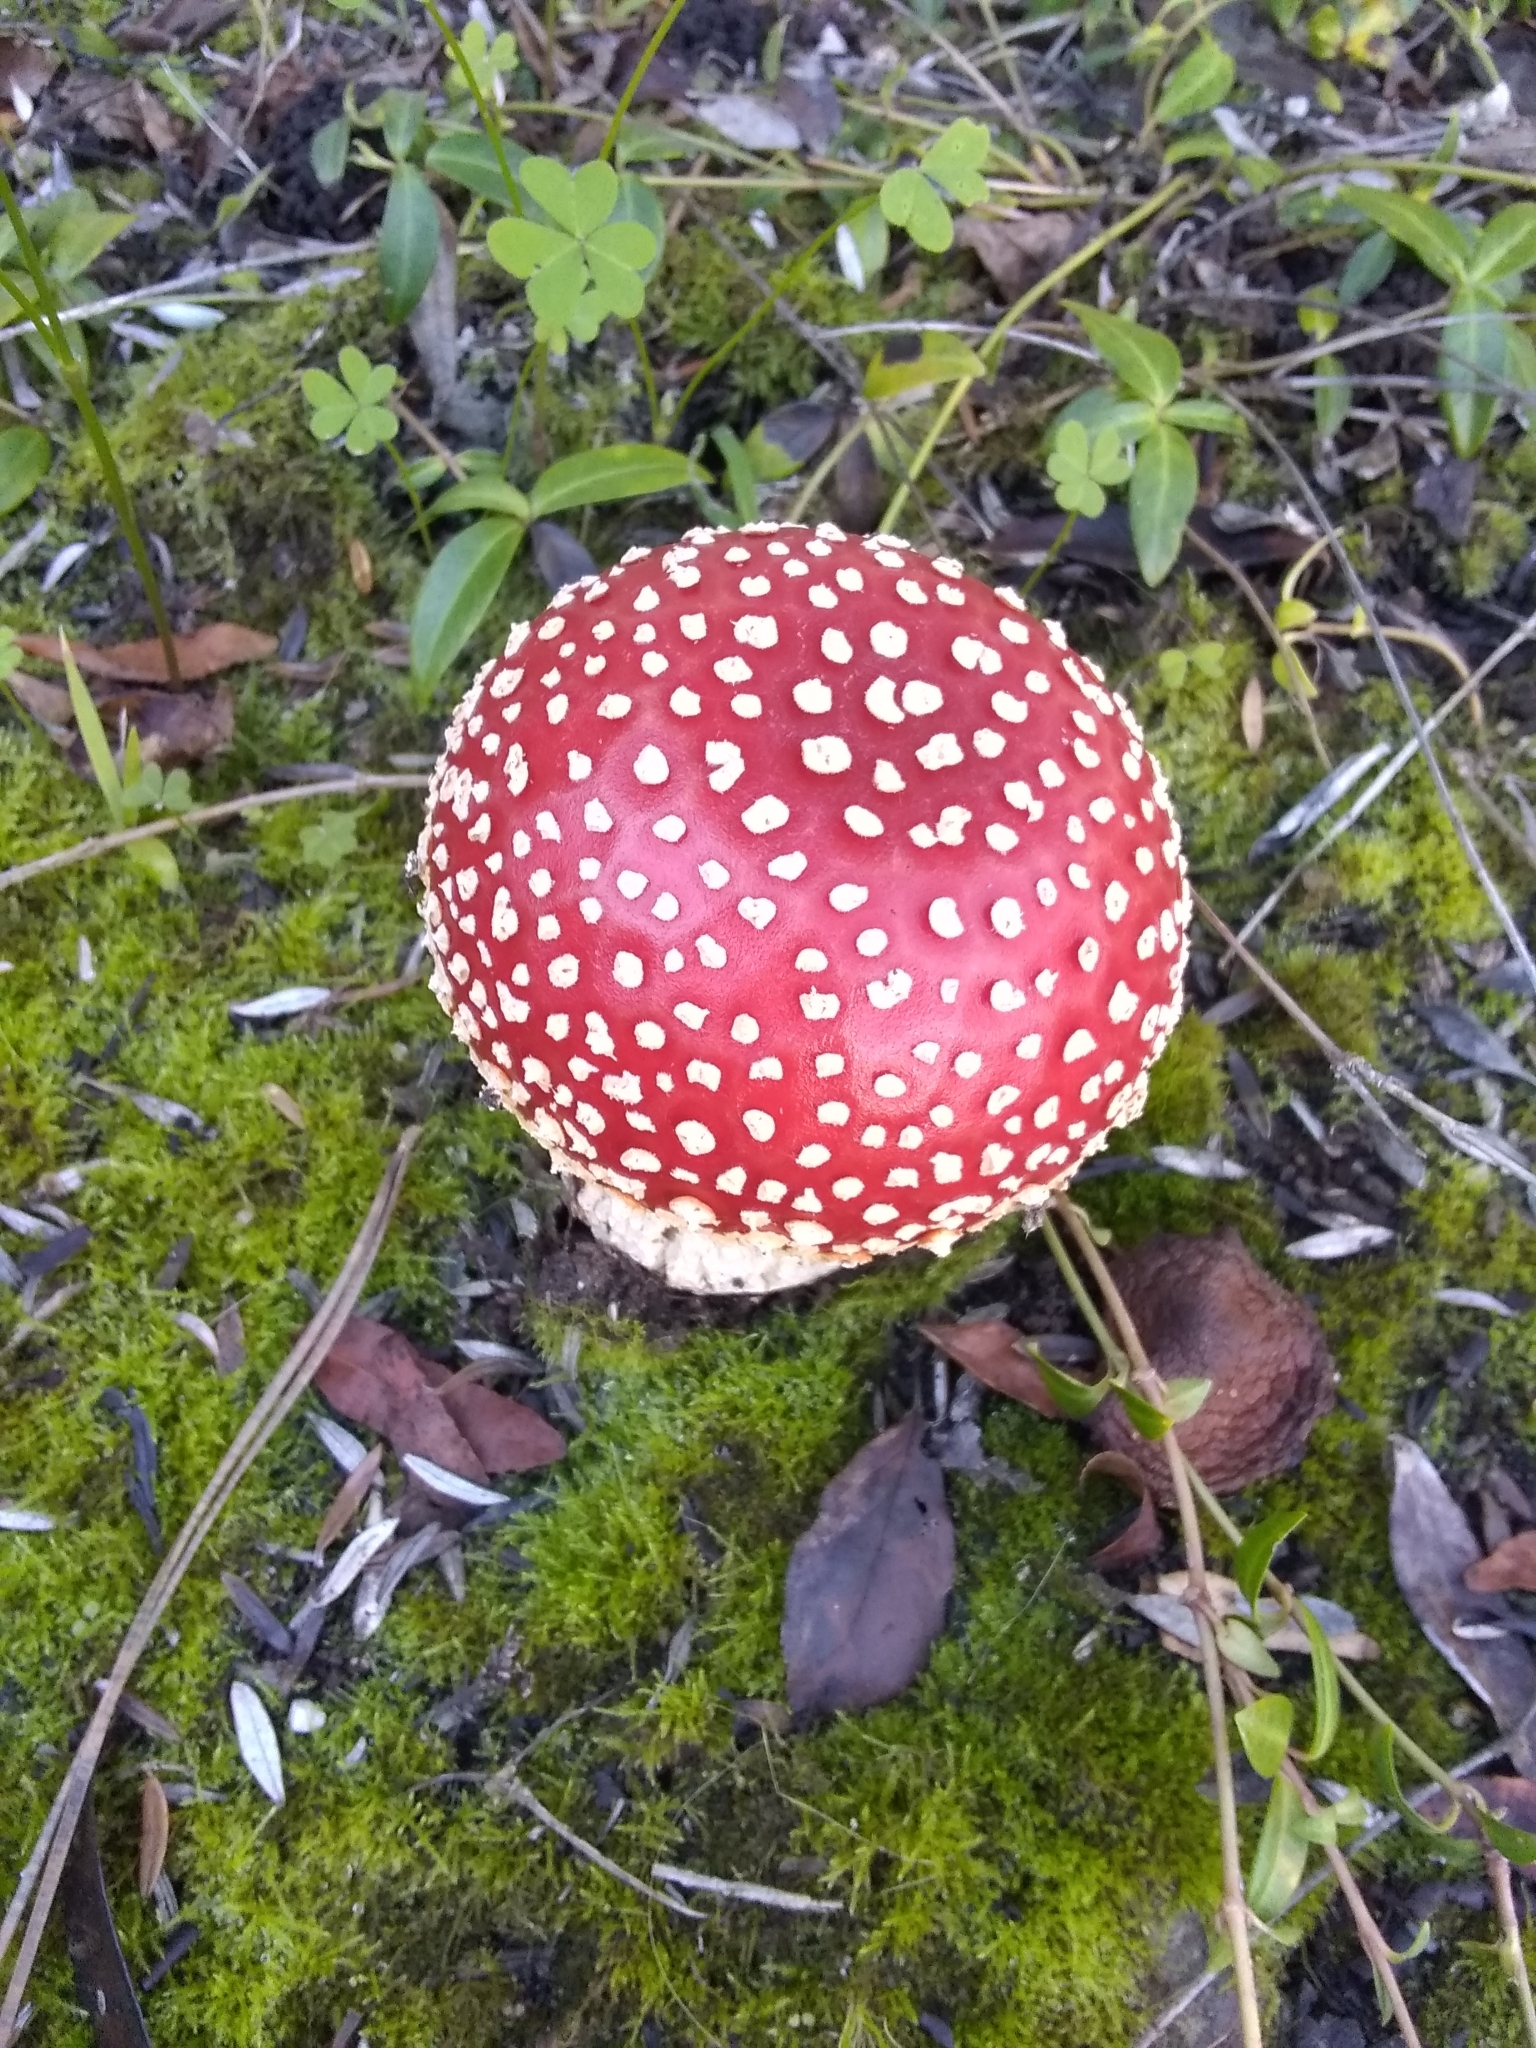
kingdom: Fungi
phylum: Basidiomycota
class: Agaricomycetes
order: Agaricales
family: Amanitaceae
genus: Amanita
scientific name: Amanita muscaria
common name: Fly agaric
